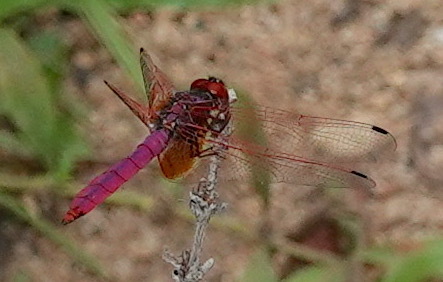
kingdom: Animalia
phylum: Arthropoda
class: Insecta
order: Odonata
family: Libellulidae
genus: Trithemis
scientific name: Trithemis aurora
